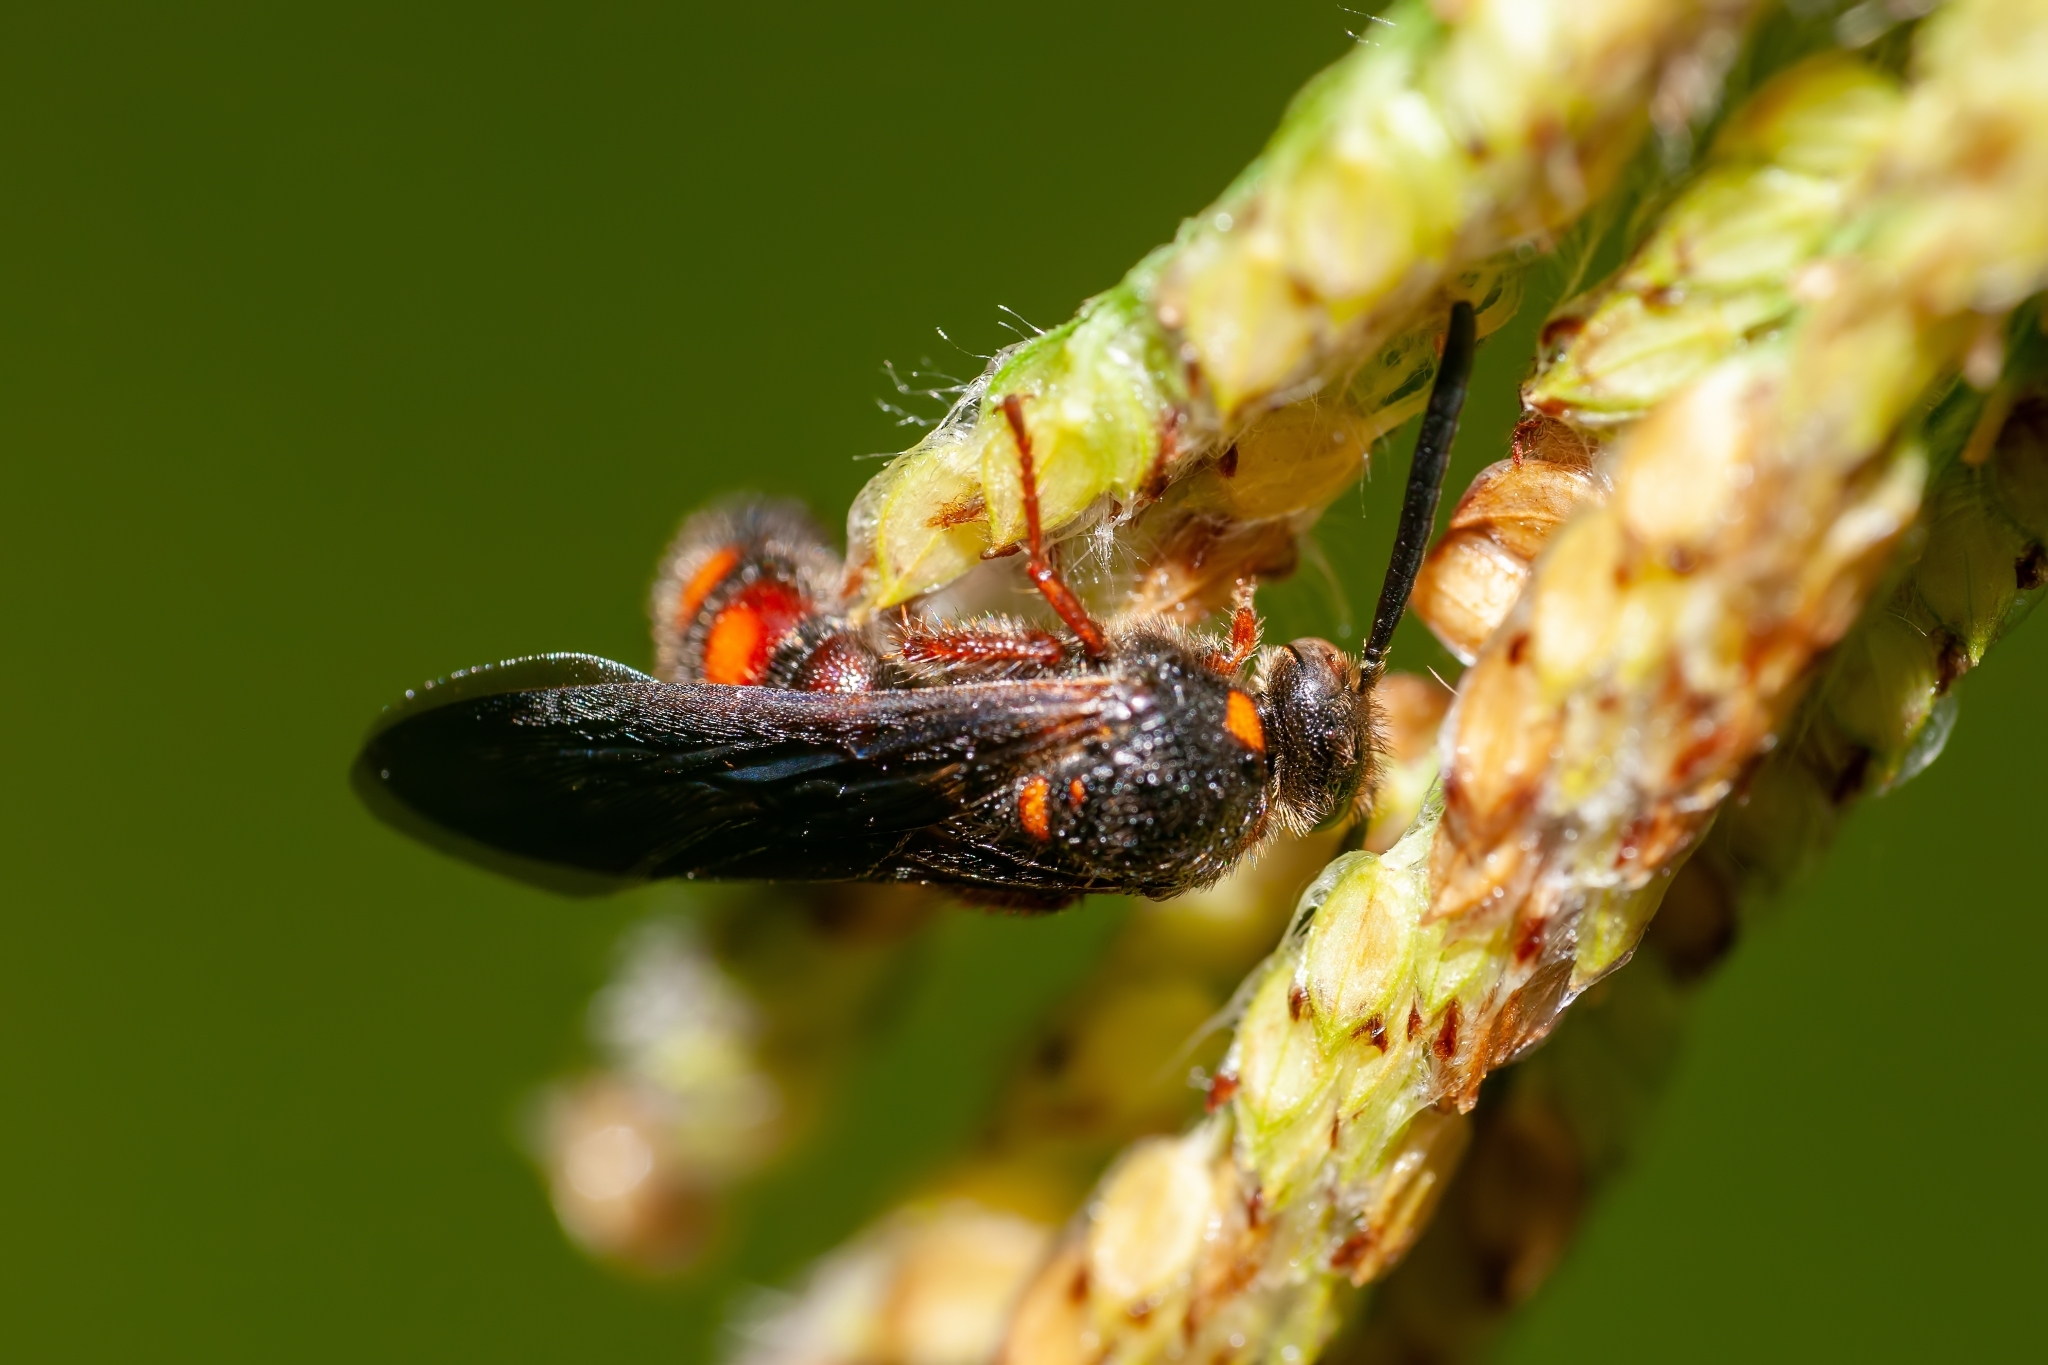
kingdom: Animalia
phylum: Arthropoda
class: Insecta
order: Hymenoptera
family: Scoliidae
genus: Scolia
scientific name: Scolia nobilitata
